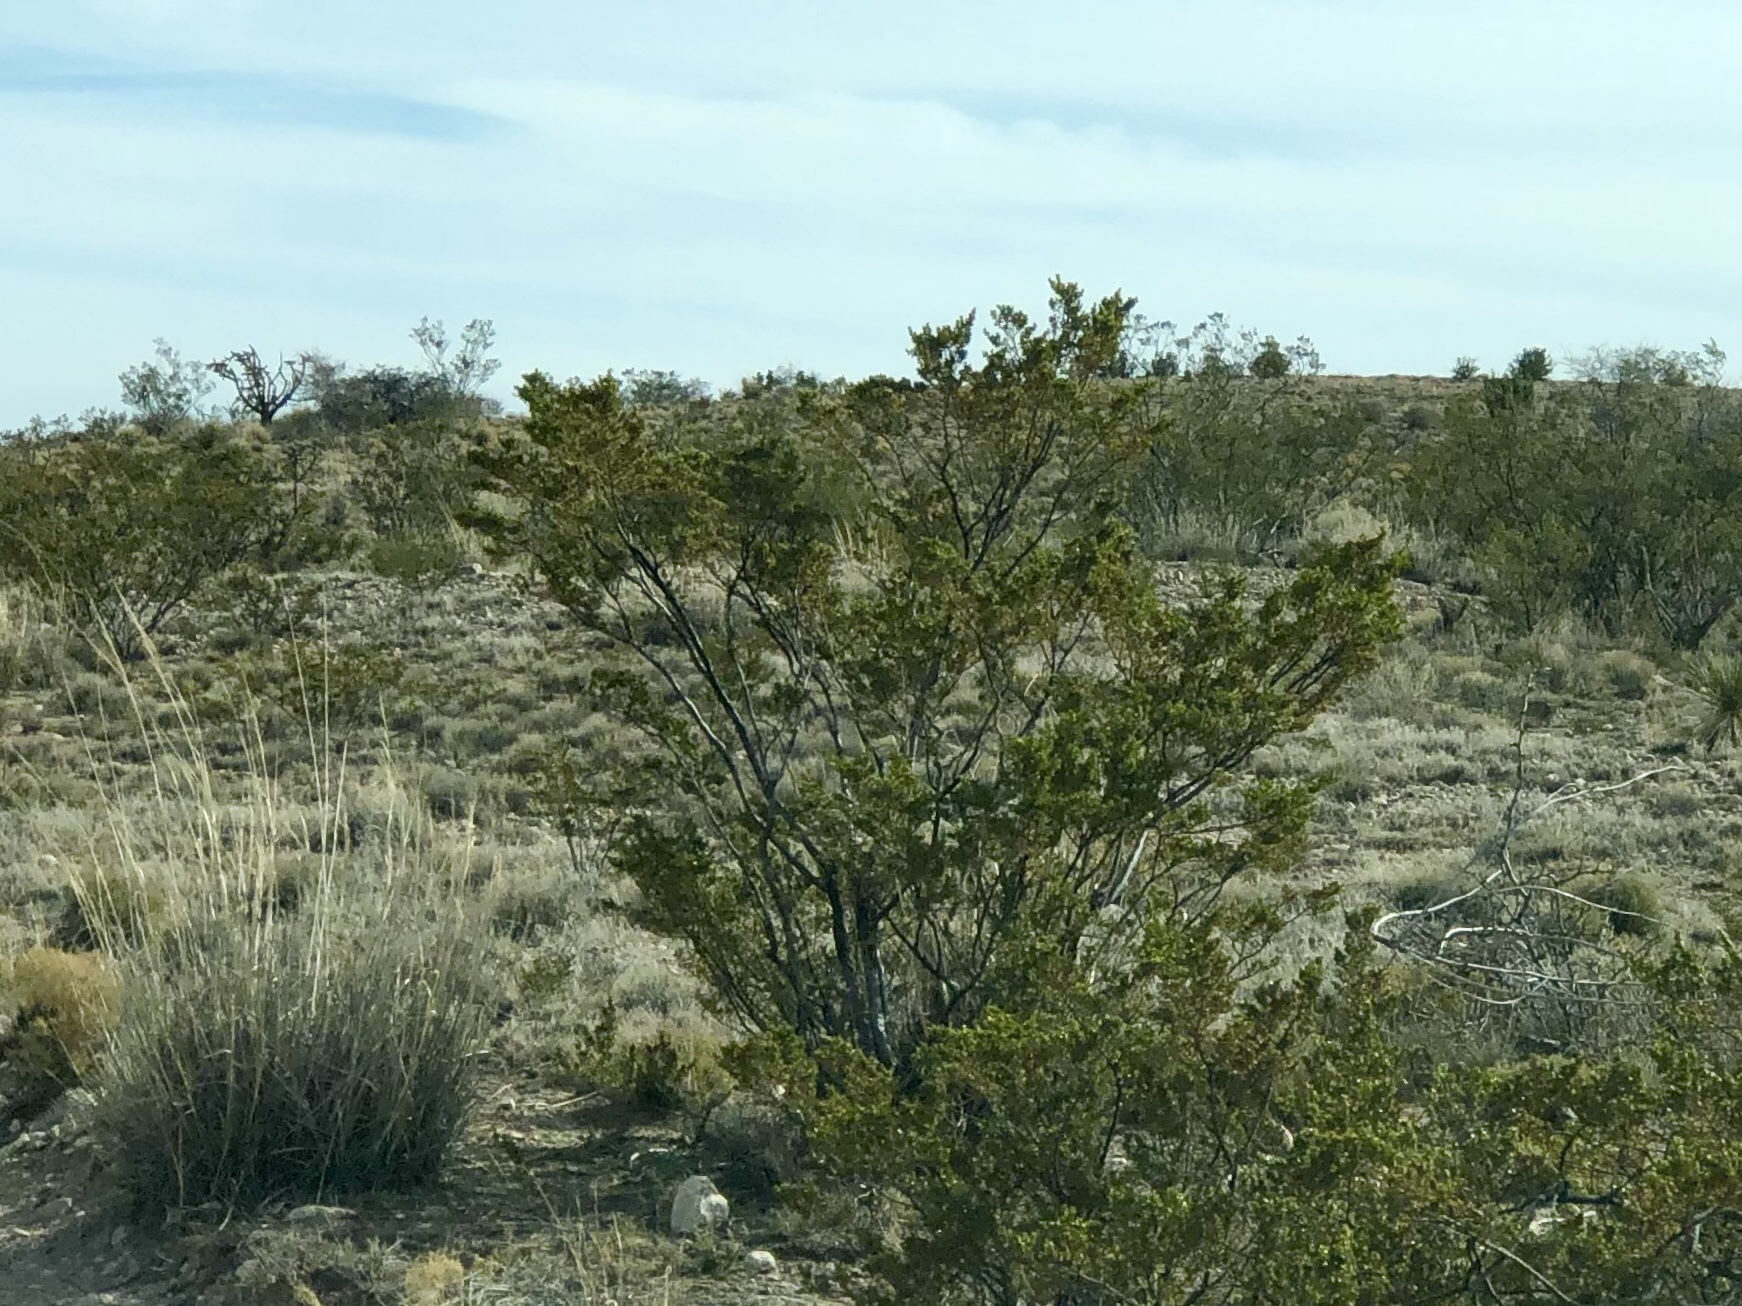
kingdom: Plantae
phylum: Tracheophyta
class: Magnoliopsida
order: Zygophyllales
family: Zygophyllaceae
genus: Larrea
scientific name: Larrea tridentata
